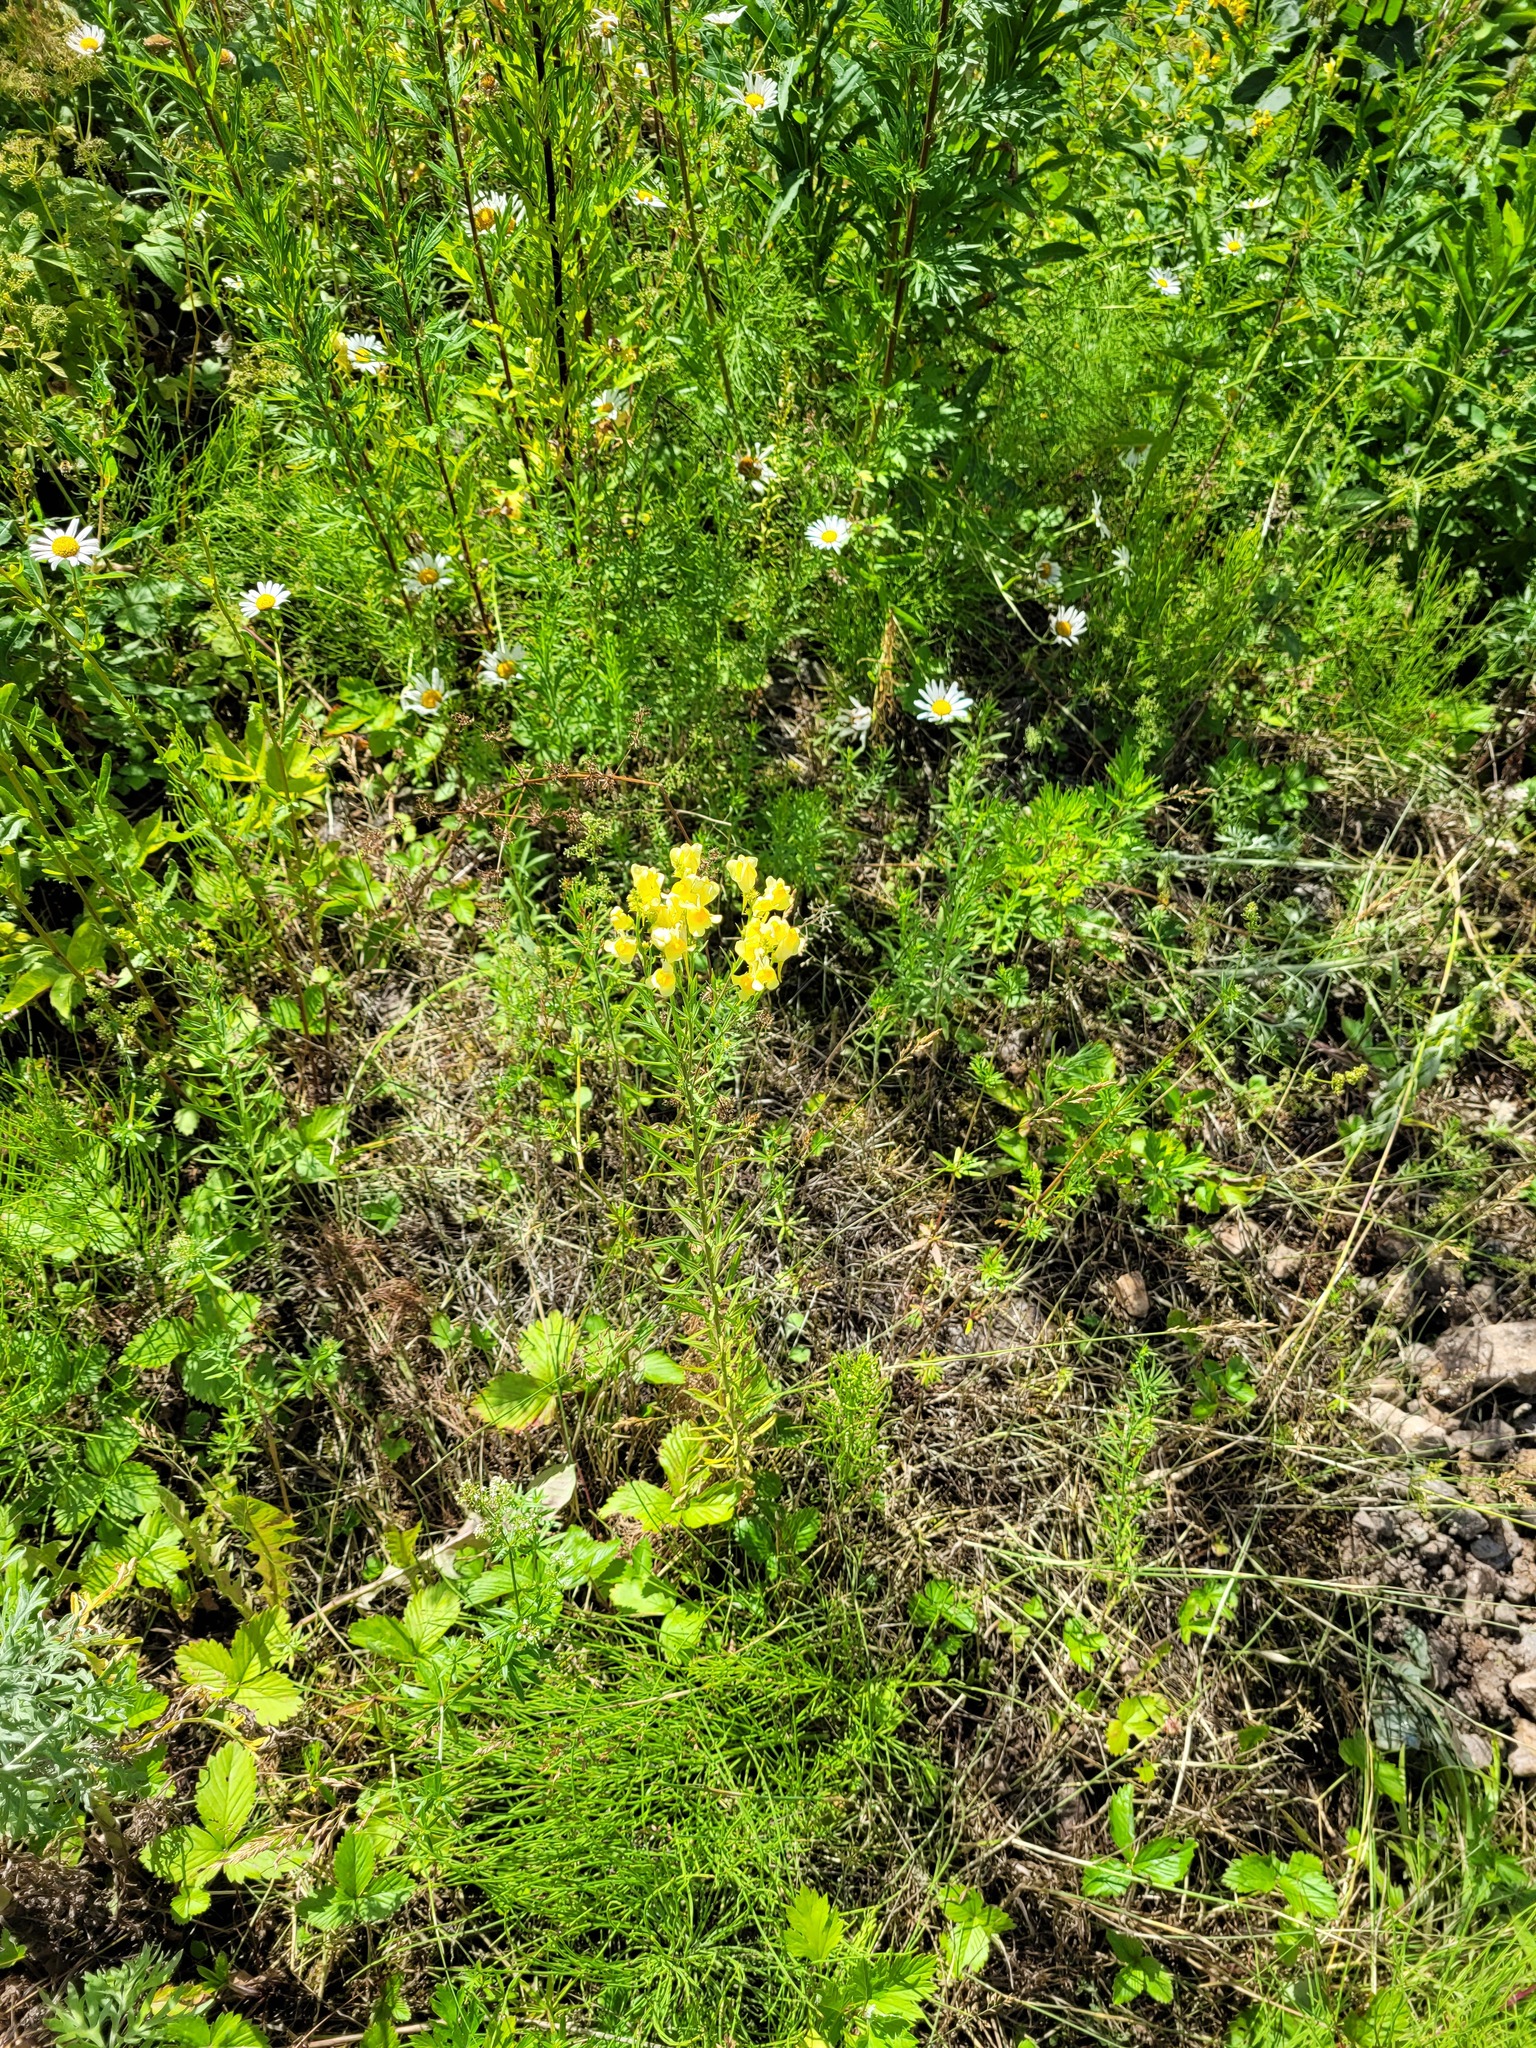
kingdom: Plantae
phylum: Tracheophyta
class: Magnoliopsida
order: Lamiales
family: Plantaginaceae
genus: Linaria
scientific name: Linaria vulgaris
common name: Butter and eggs
